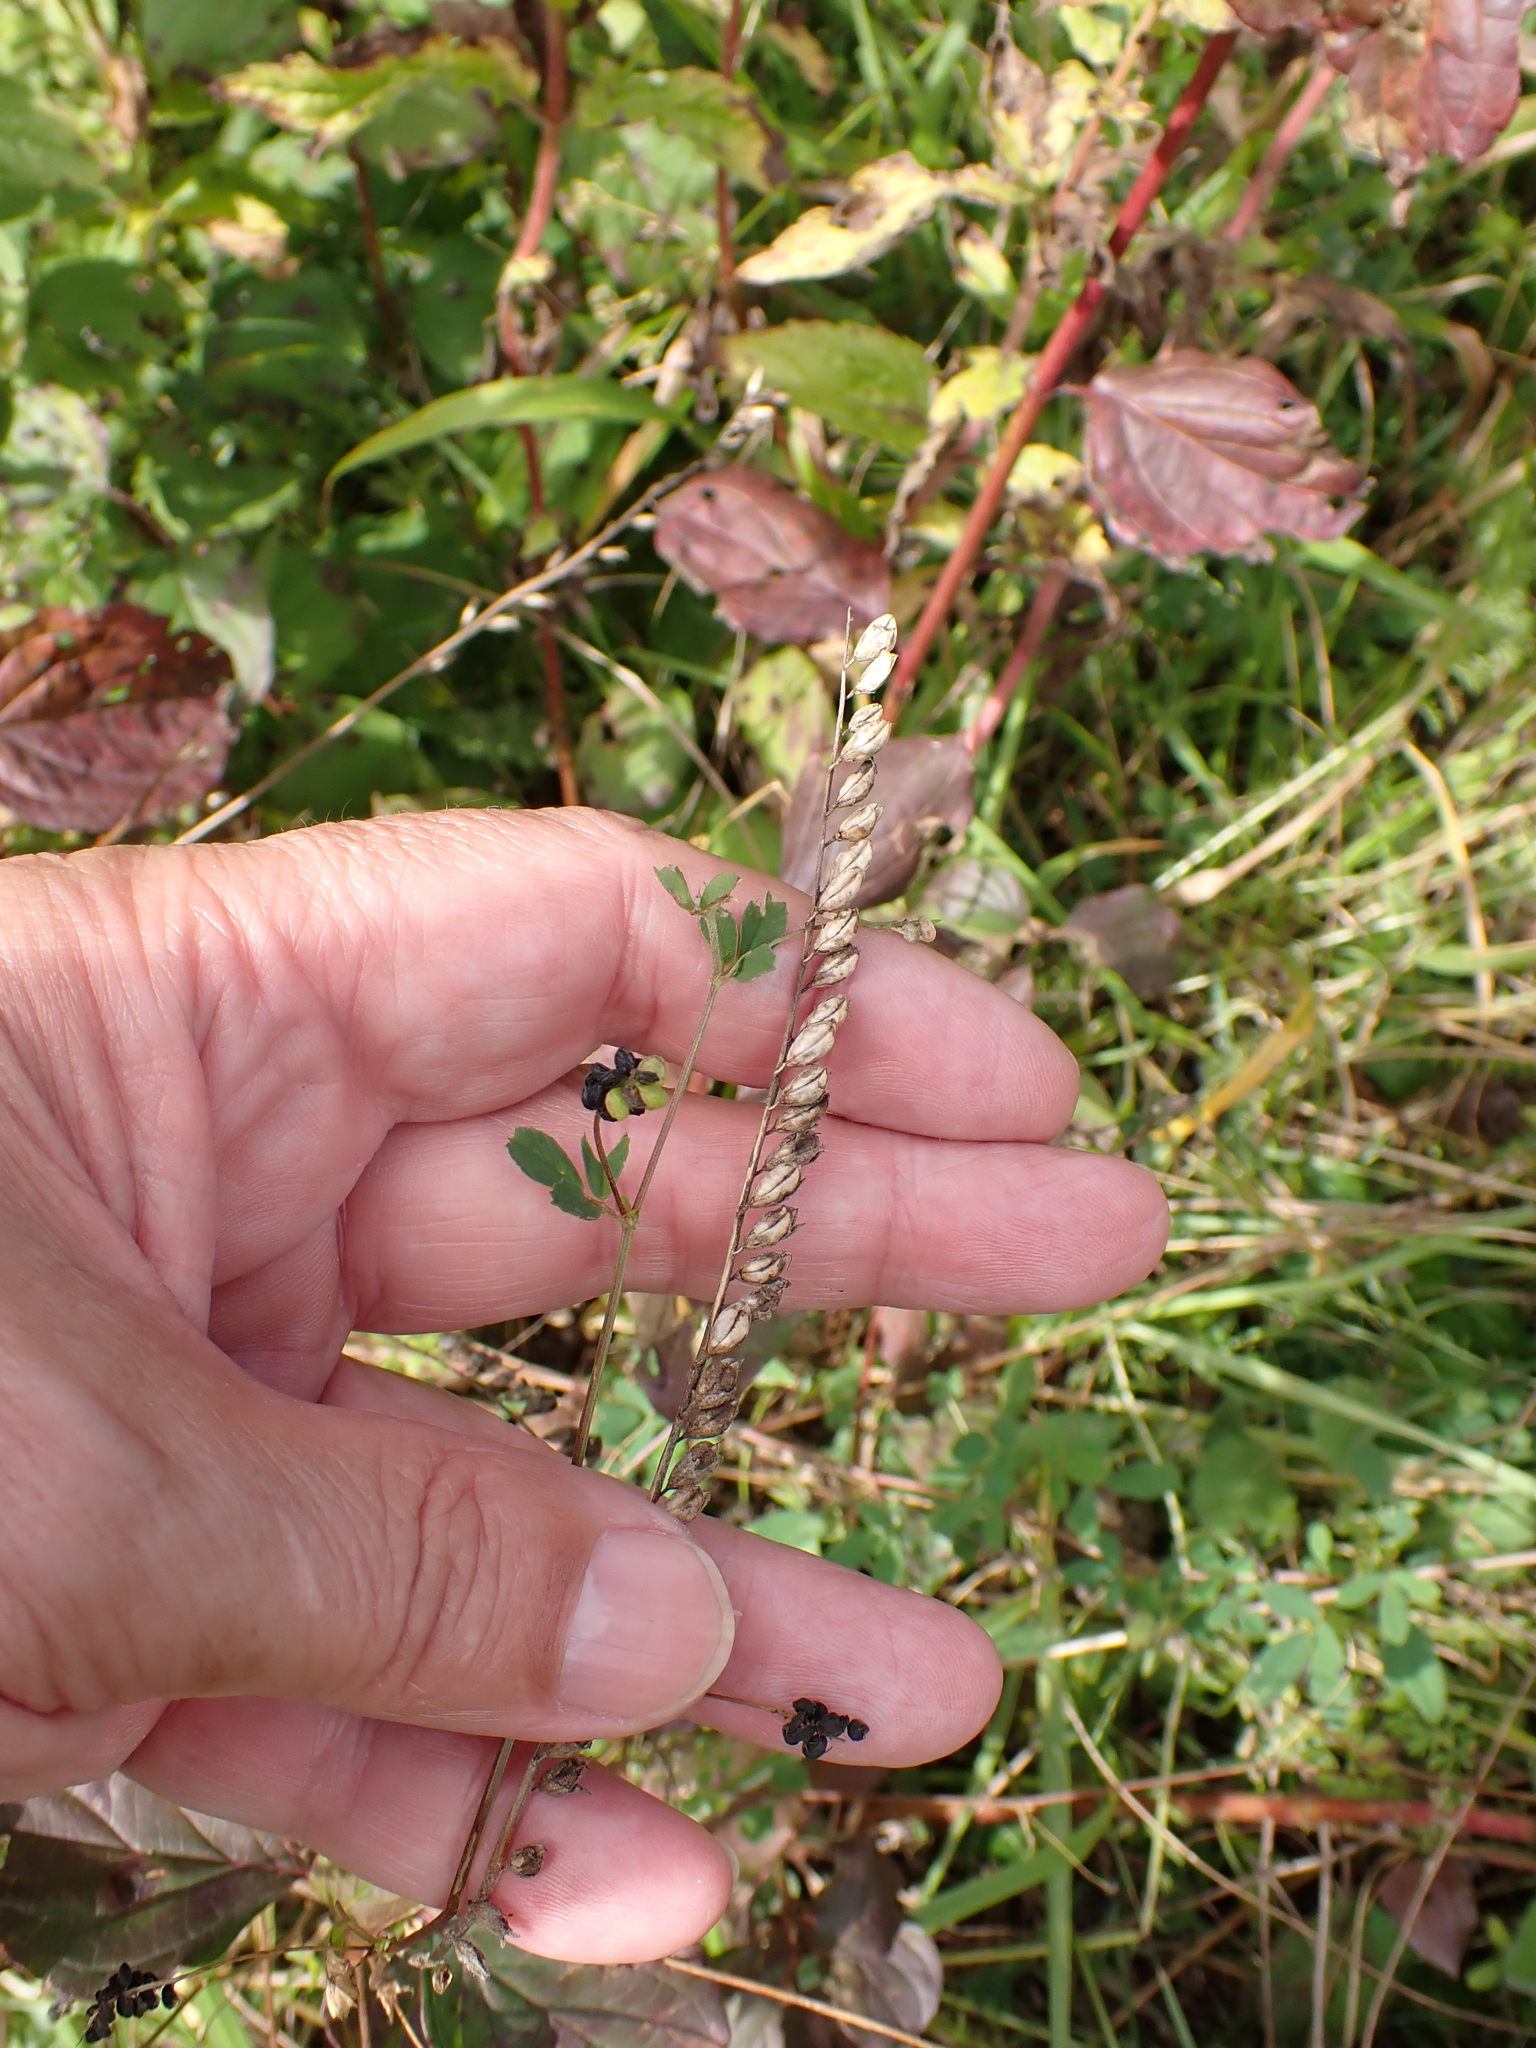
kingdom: Plantae
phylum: Tracheophyta
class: Magnoliopsida
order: Lamiales
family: Orobanchaceae
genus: Odontites
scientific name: Odontites vulgaris
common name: Broomrape
